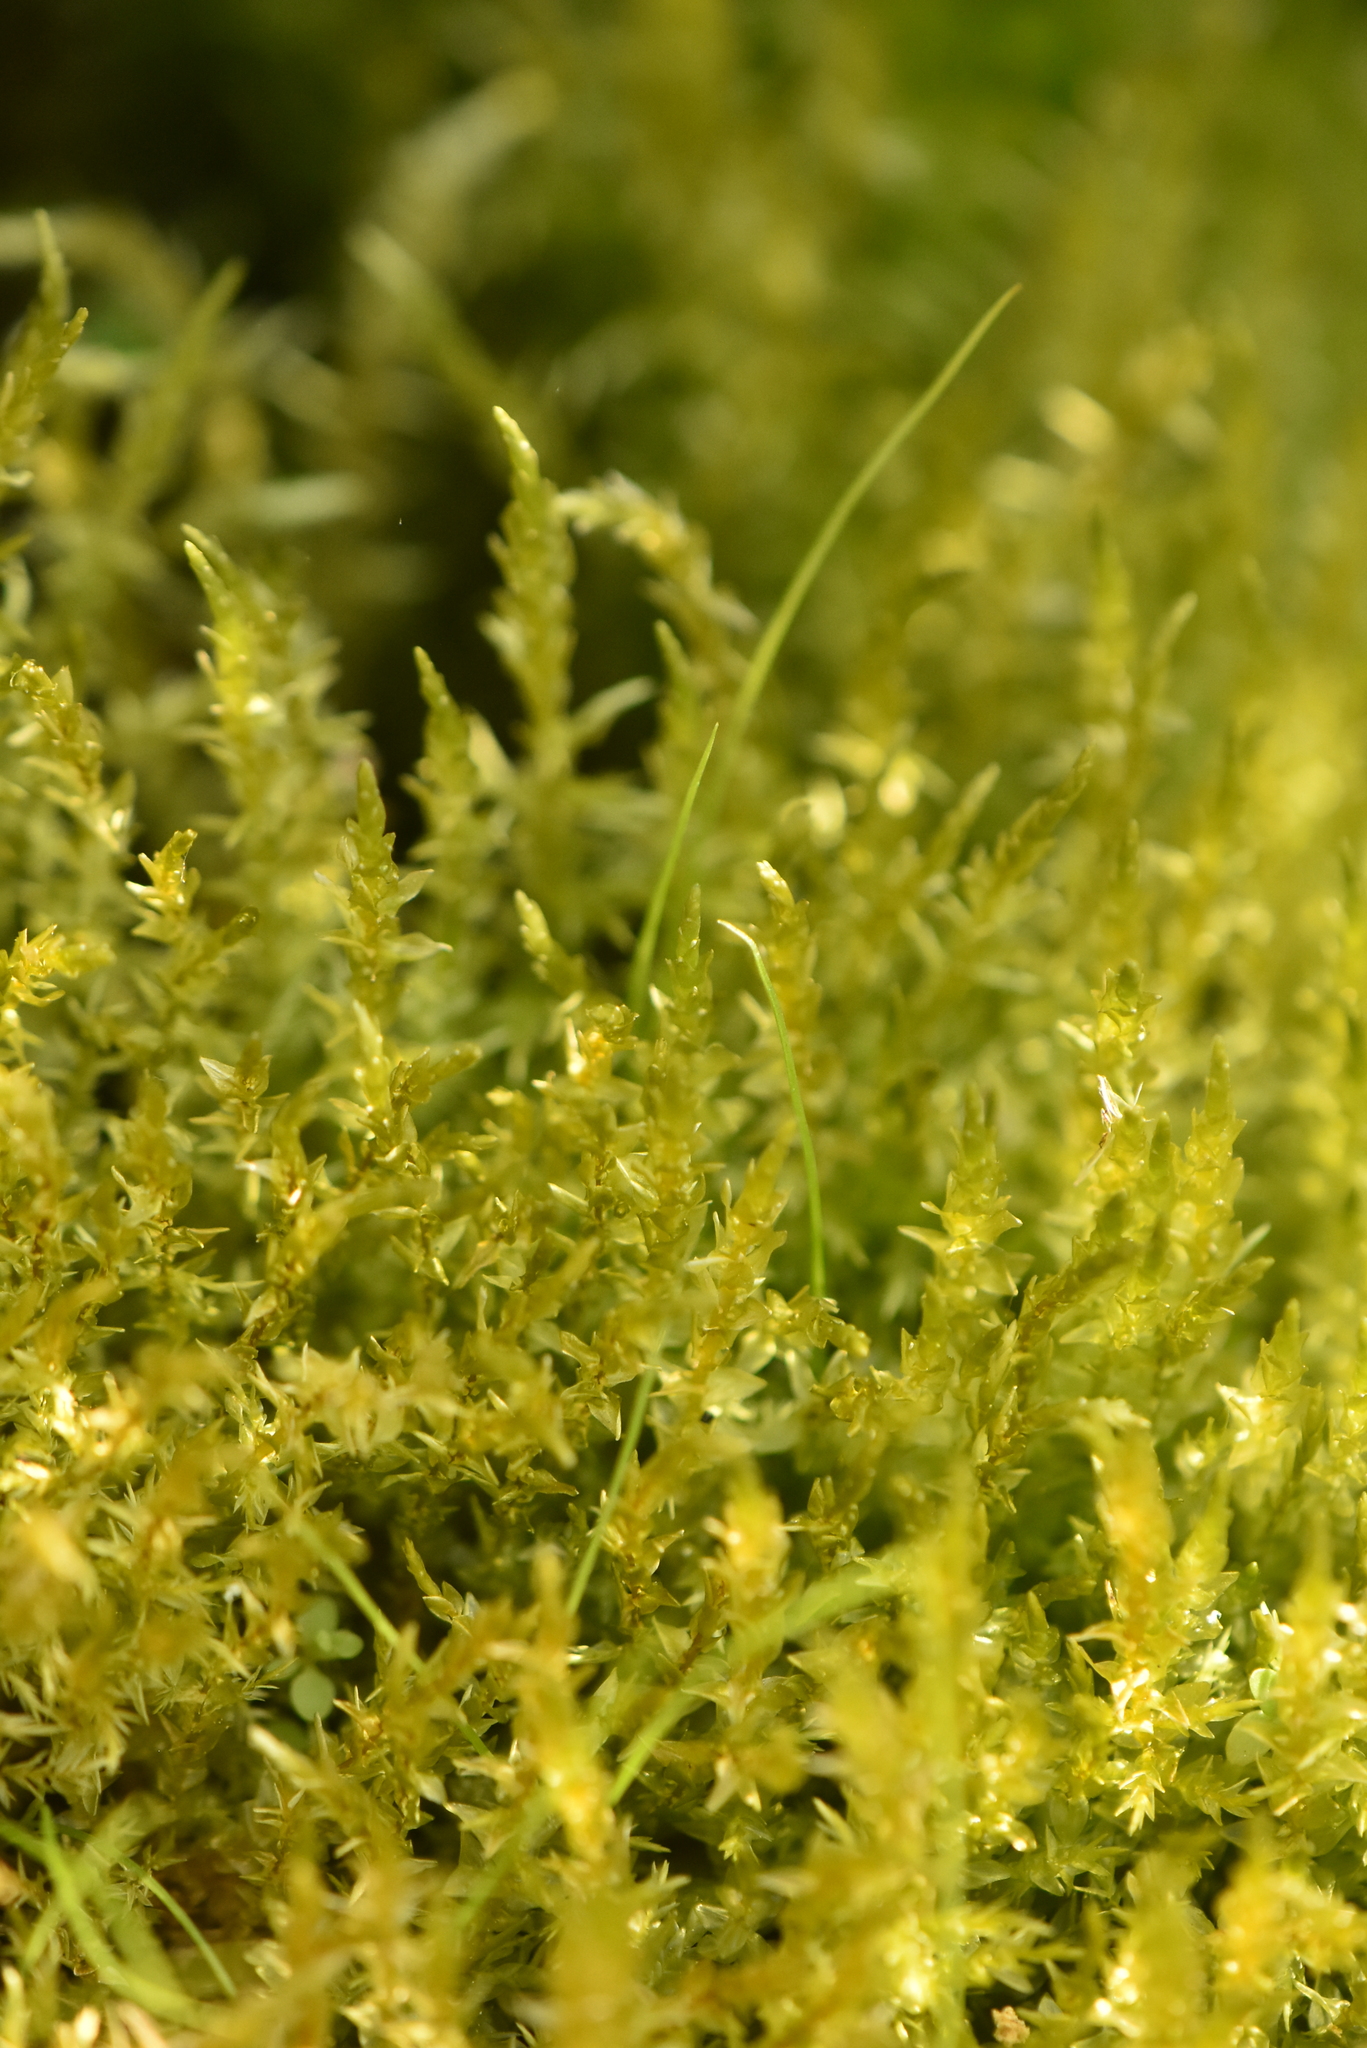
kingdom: Plantae
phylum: Bryophyta
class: Bryopsida
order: Aulacomniales
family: Aulacomniaceae
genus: Aulacomnium
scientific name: Aulacomnium palustre
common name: Bog groove-moss
